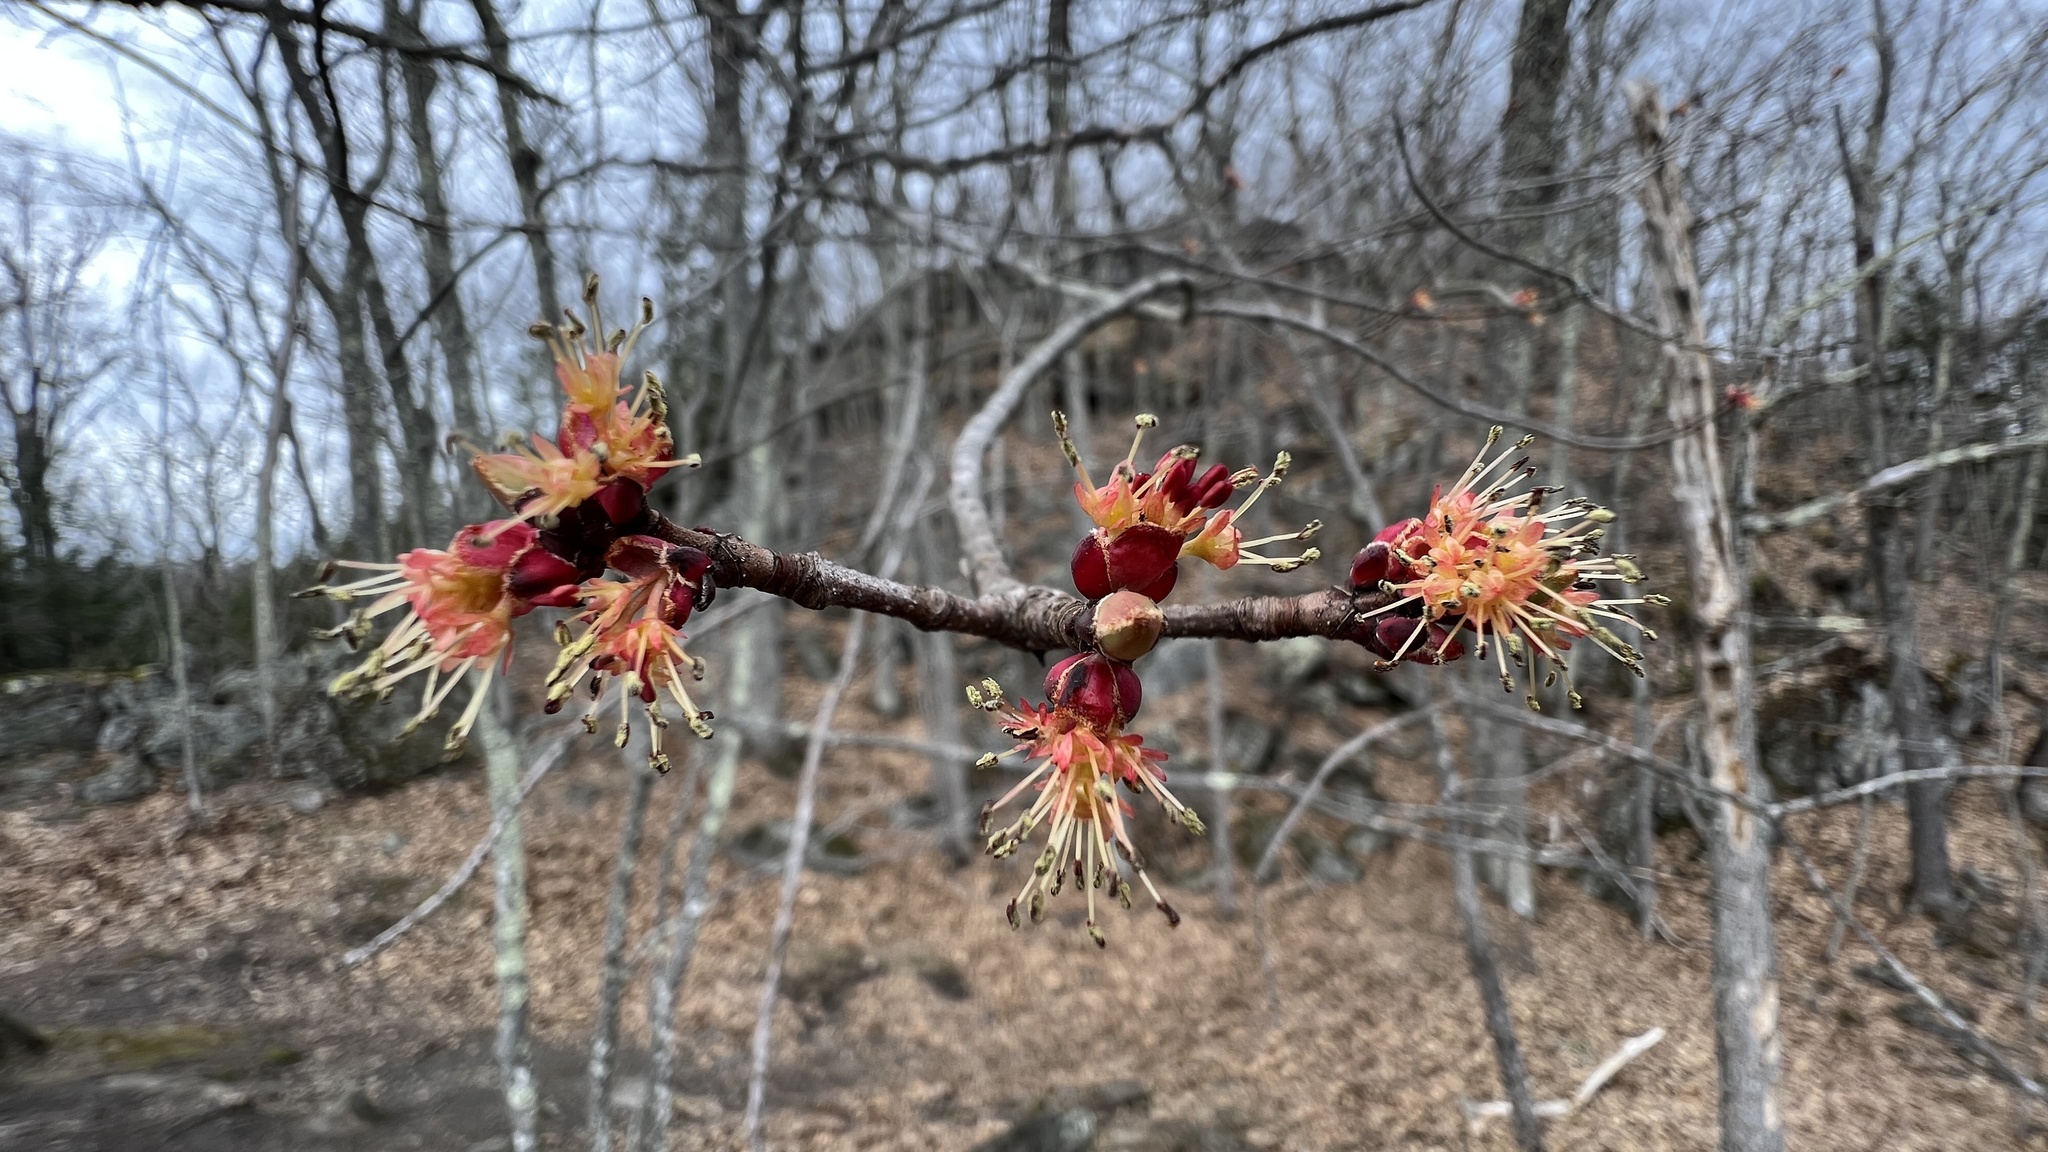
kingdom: Plantae
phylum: Tracheophyta
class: Magnoliopsida
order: Sapindales
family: Sapindaceae
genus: Acer
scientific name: Acer rubrum
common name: Red maple
